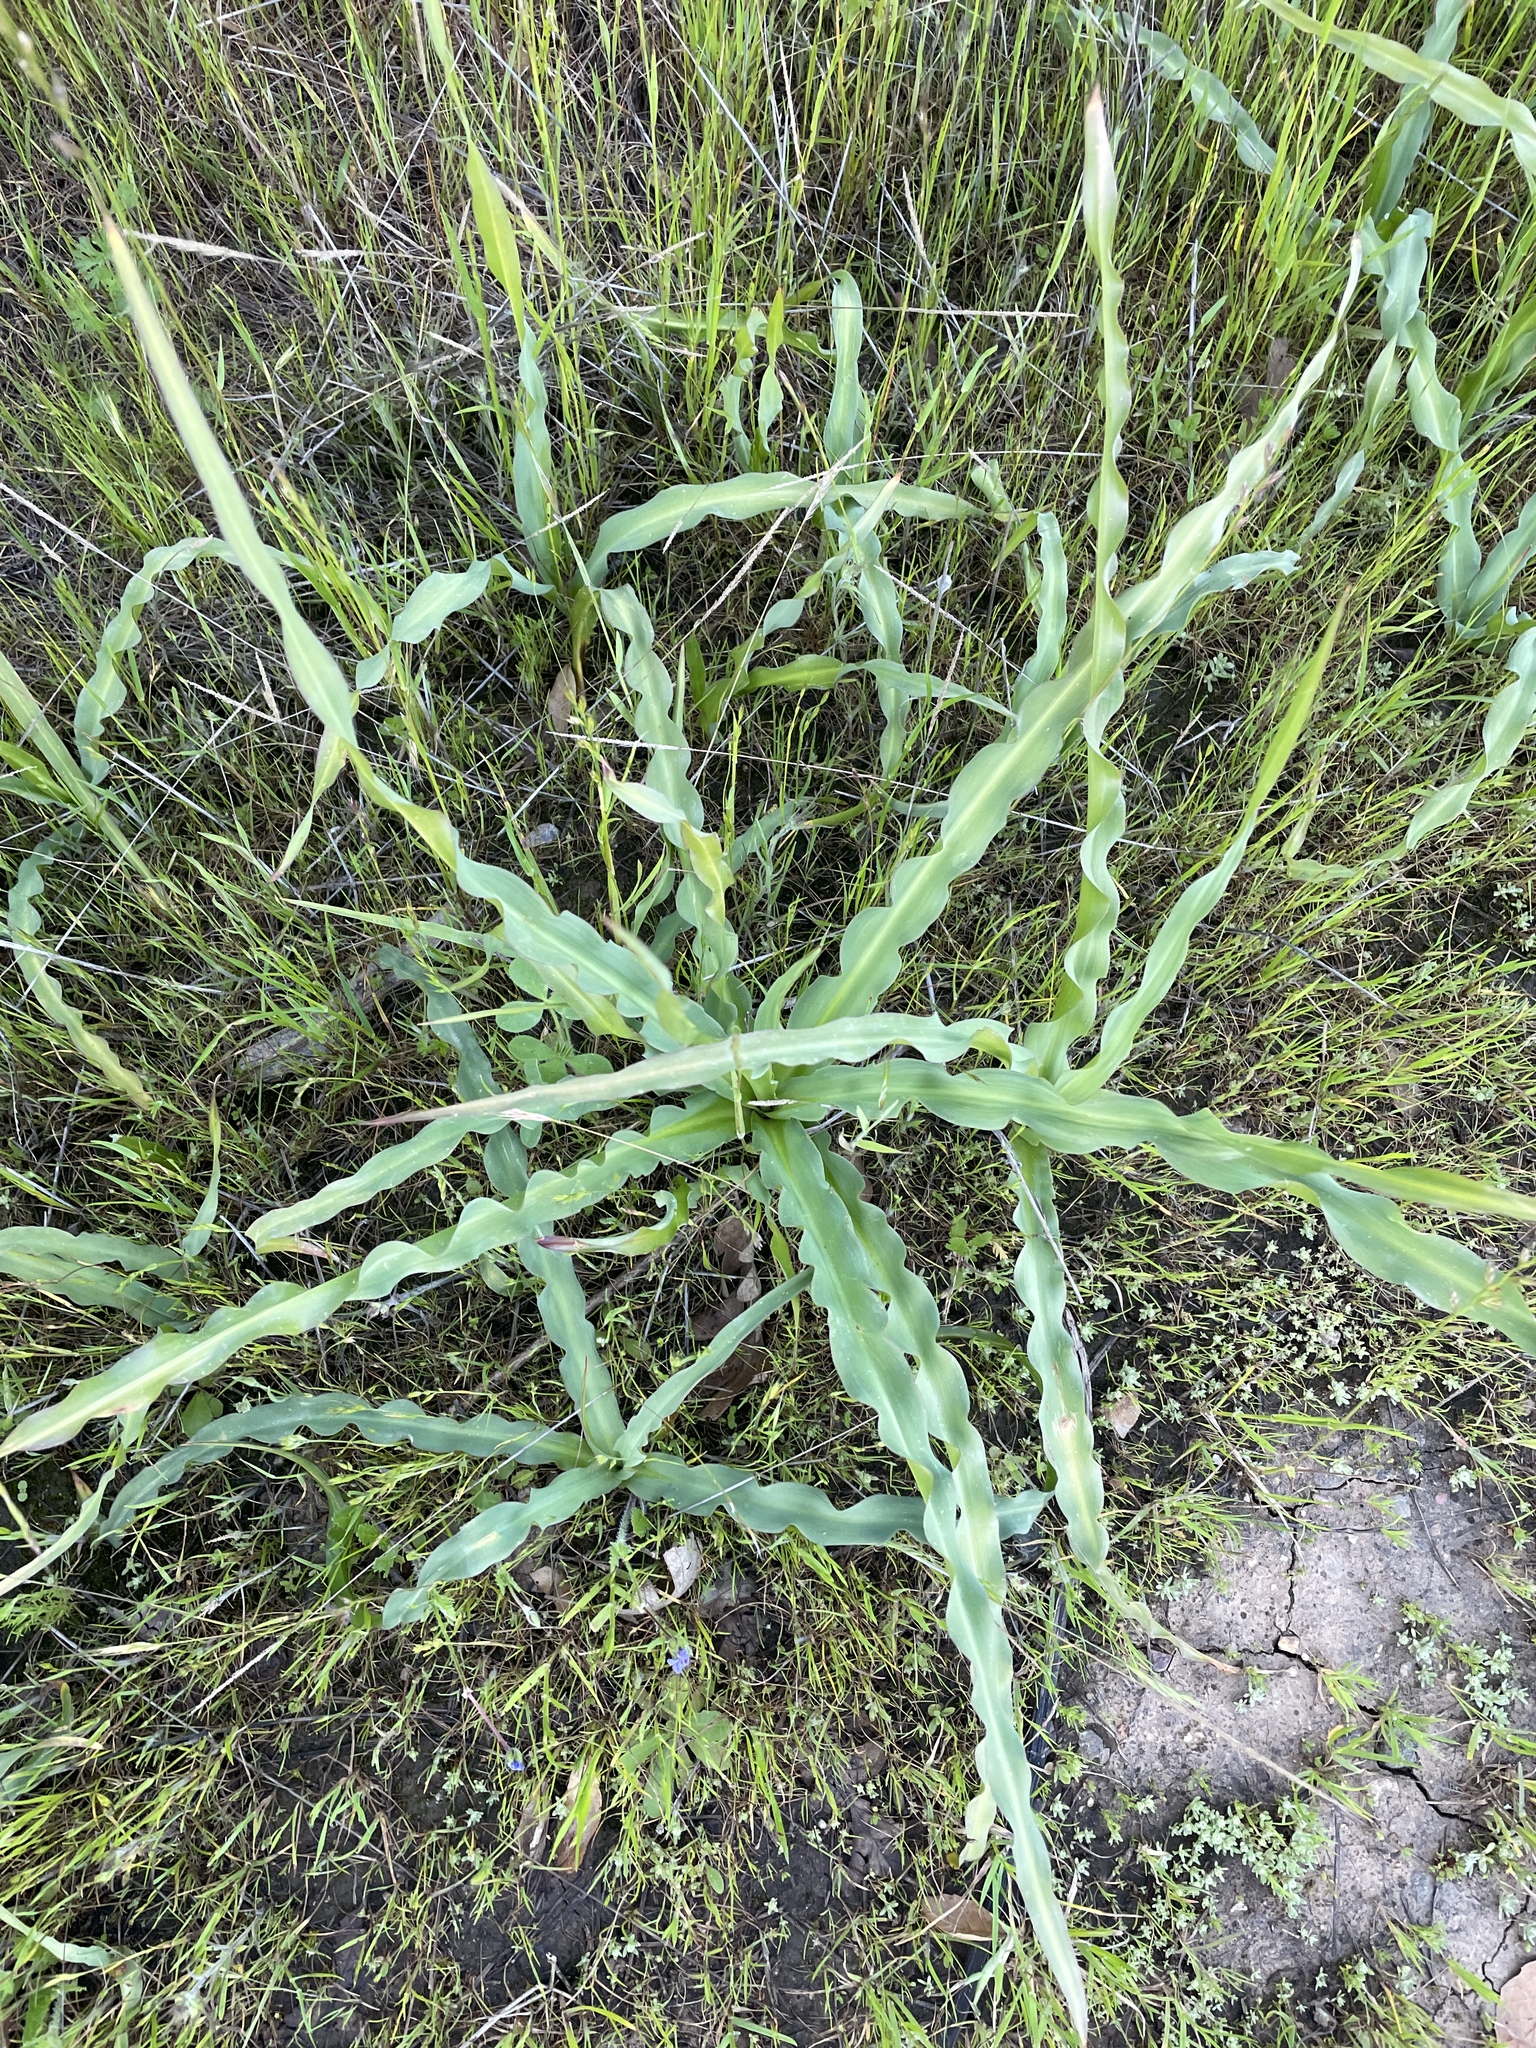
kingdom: Plantae
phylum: Tracheophyta
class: Liliopsida
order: Asparagales
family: Asparagaceae
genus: Chlorogalum
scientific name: Chlorogalum pomeridianum
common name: Amole
